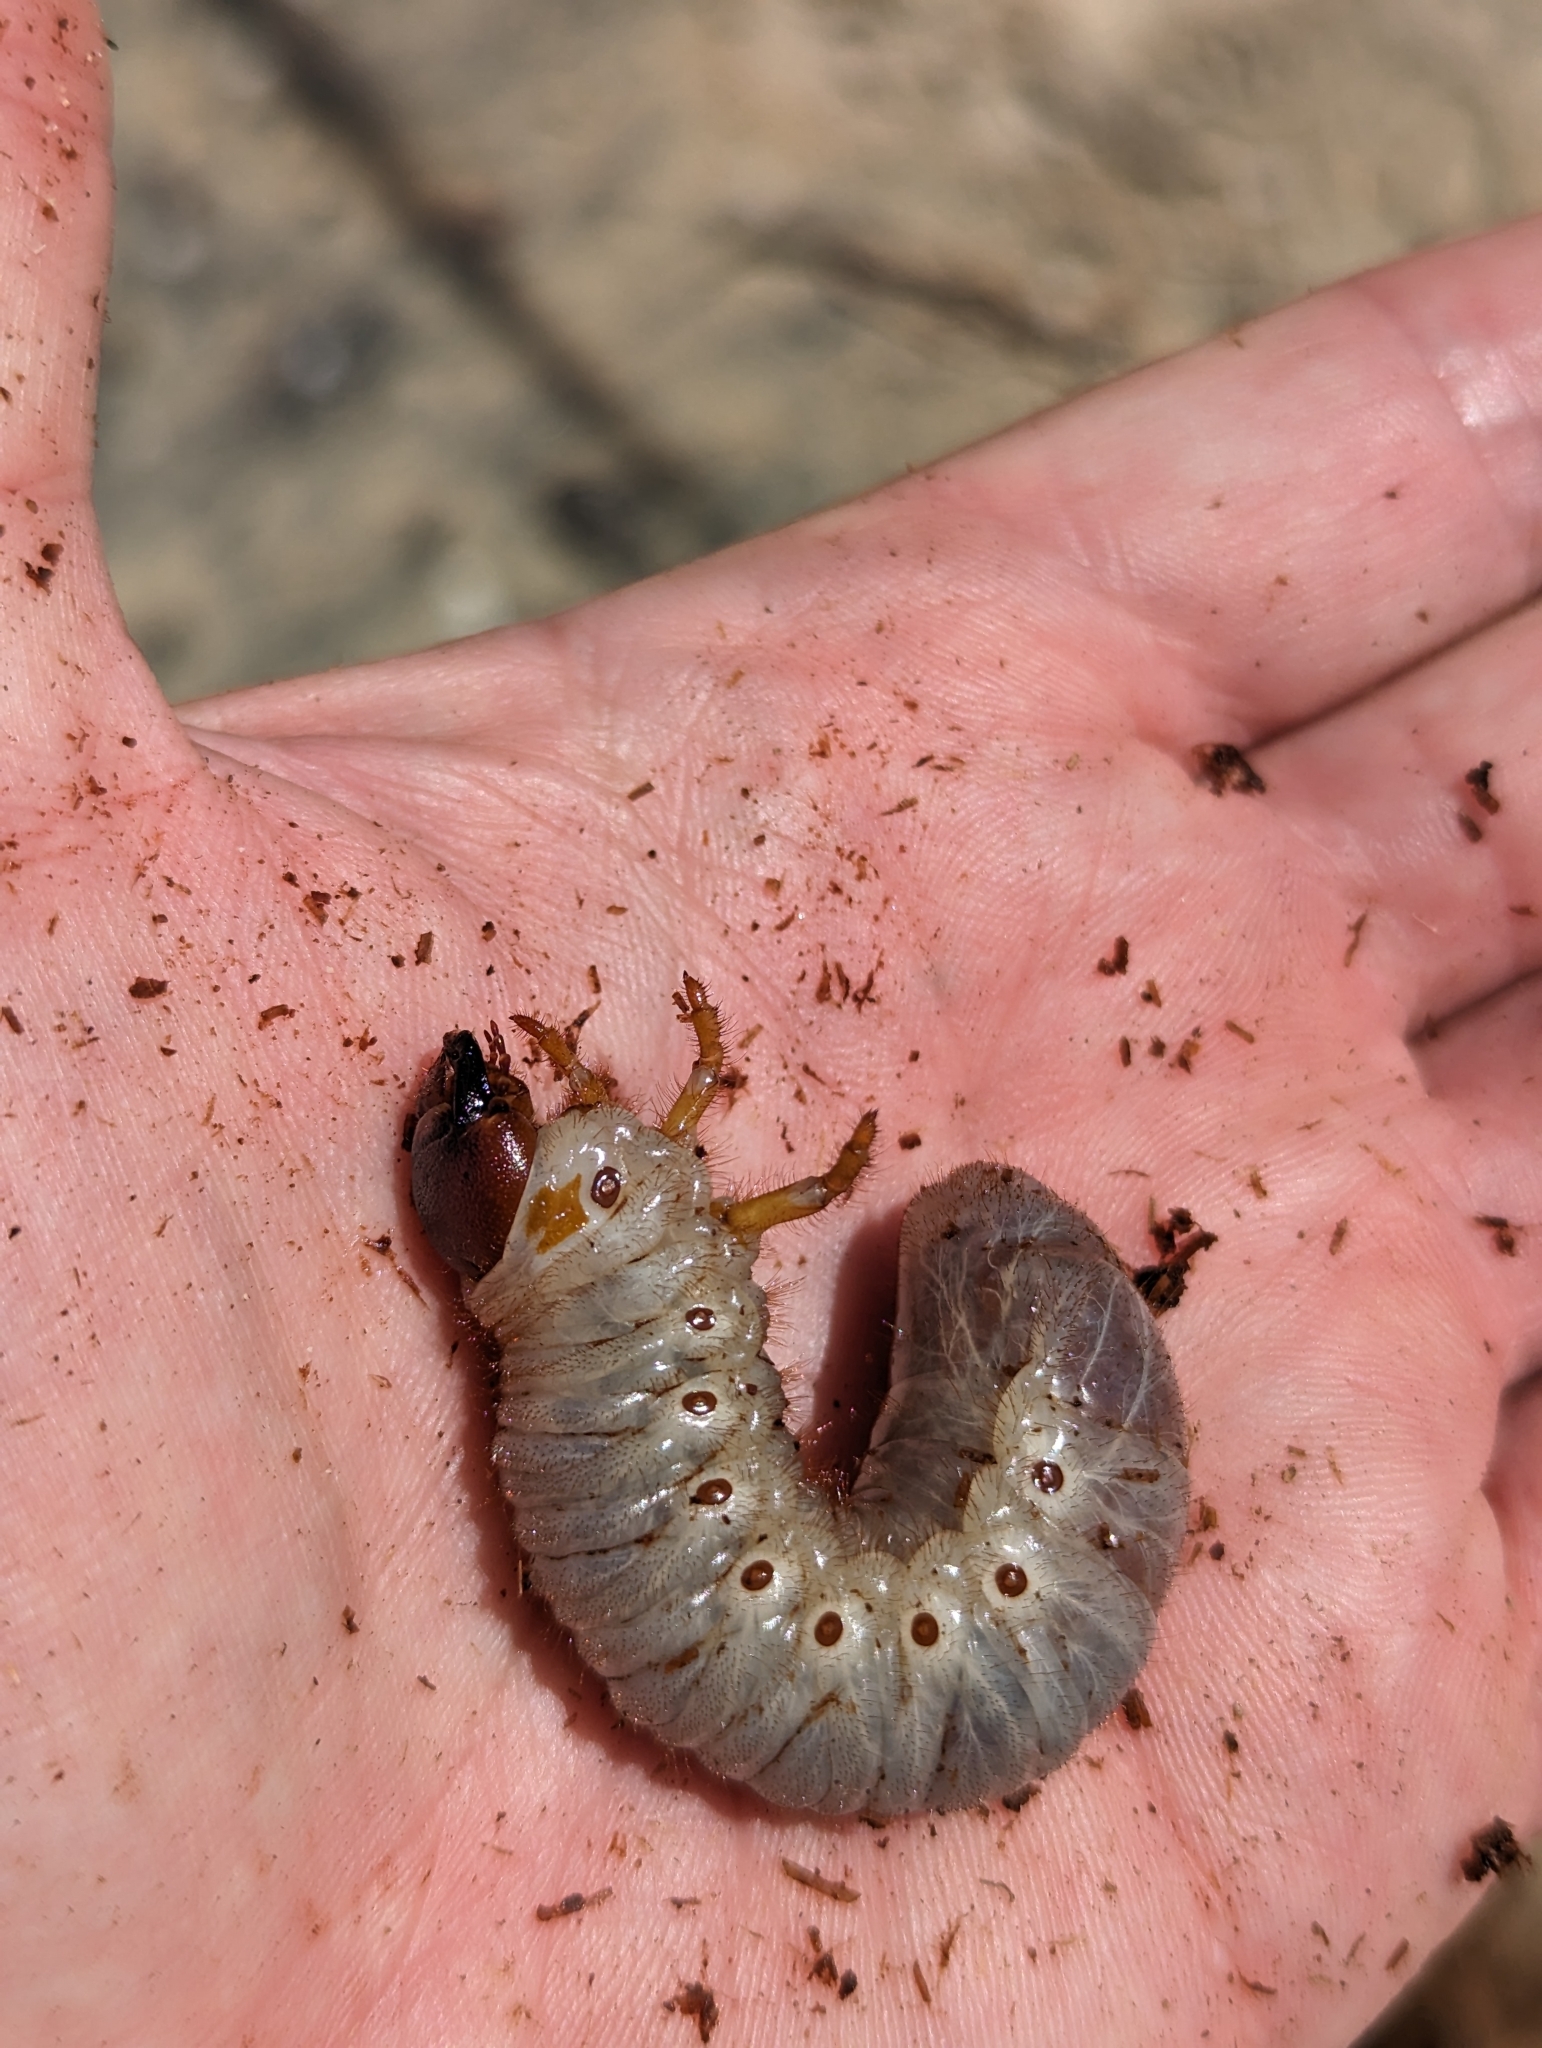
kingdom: Animalia
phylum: Arthropoda
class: Insecta
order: Coleoptera
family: Scarabaeidae
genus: Oryctes
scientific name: Oryctes rhinoceros
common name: Coconut rhinoceros beetle
